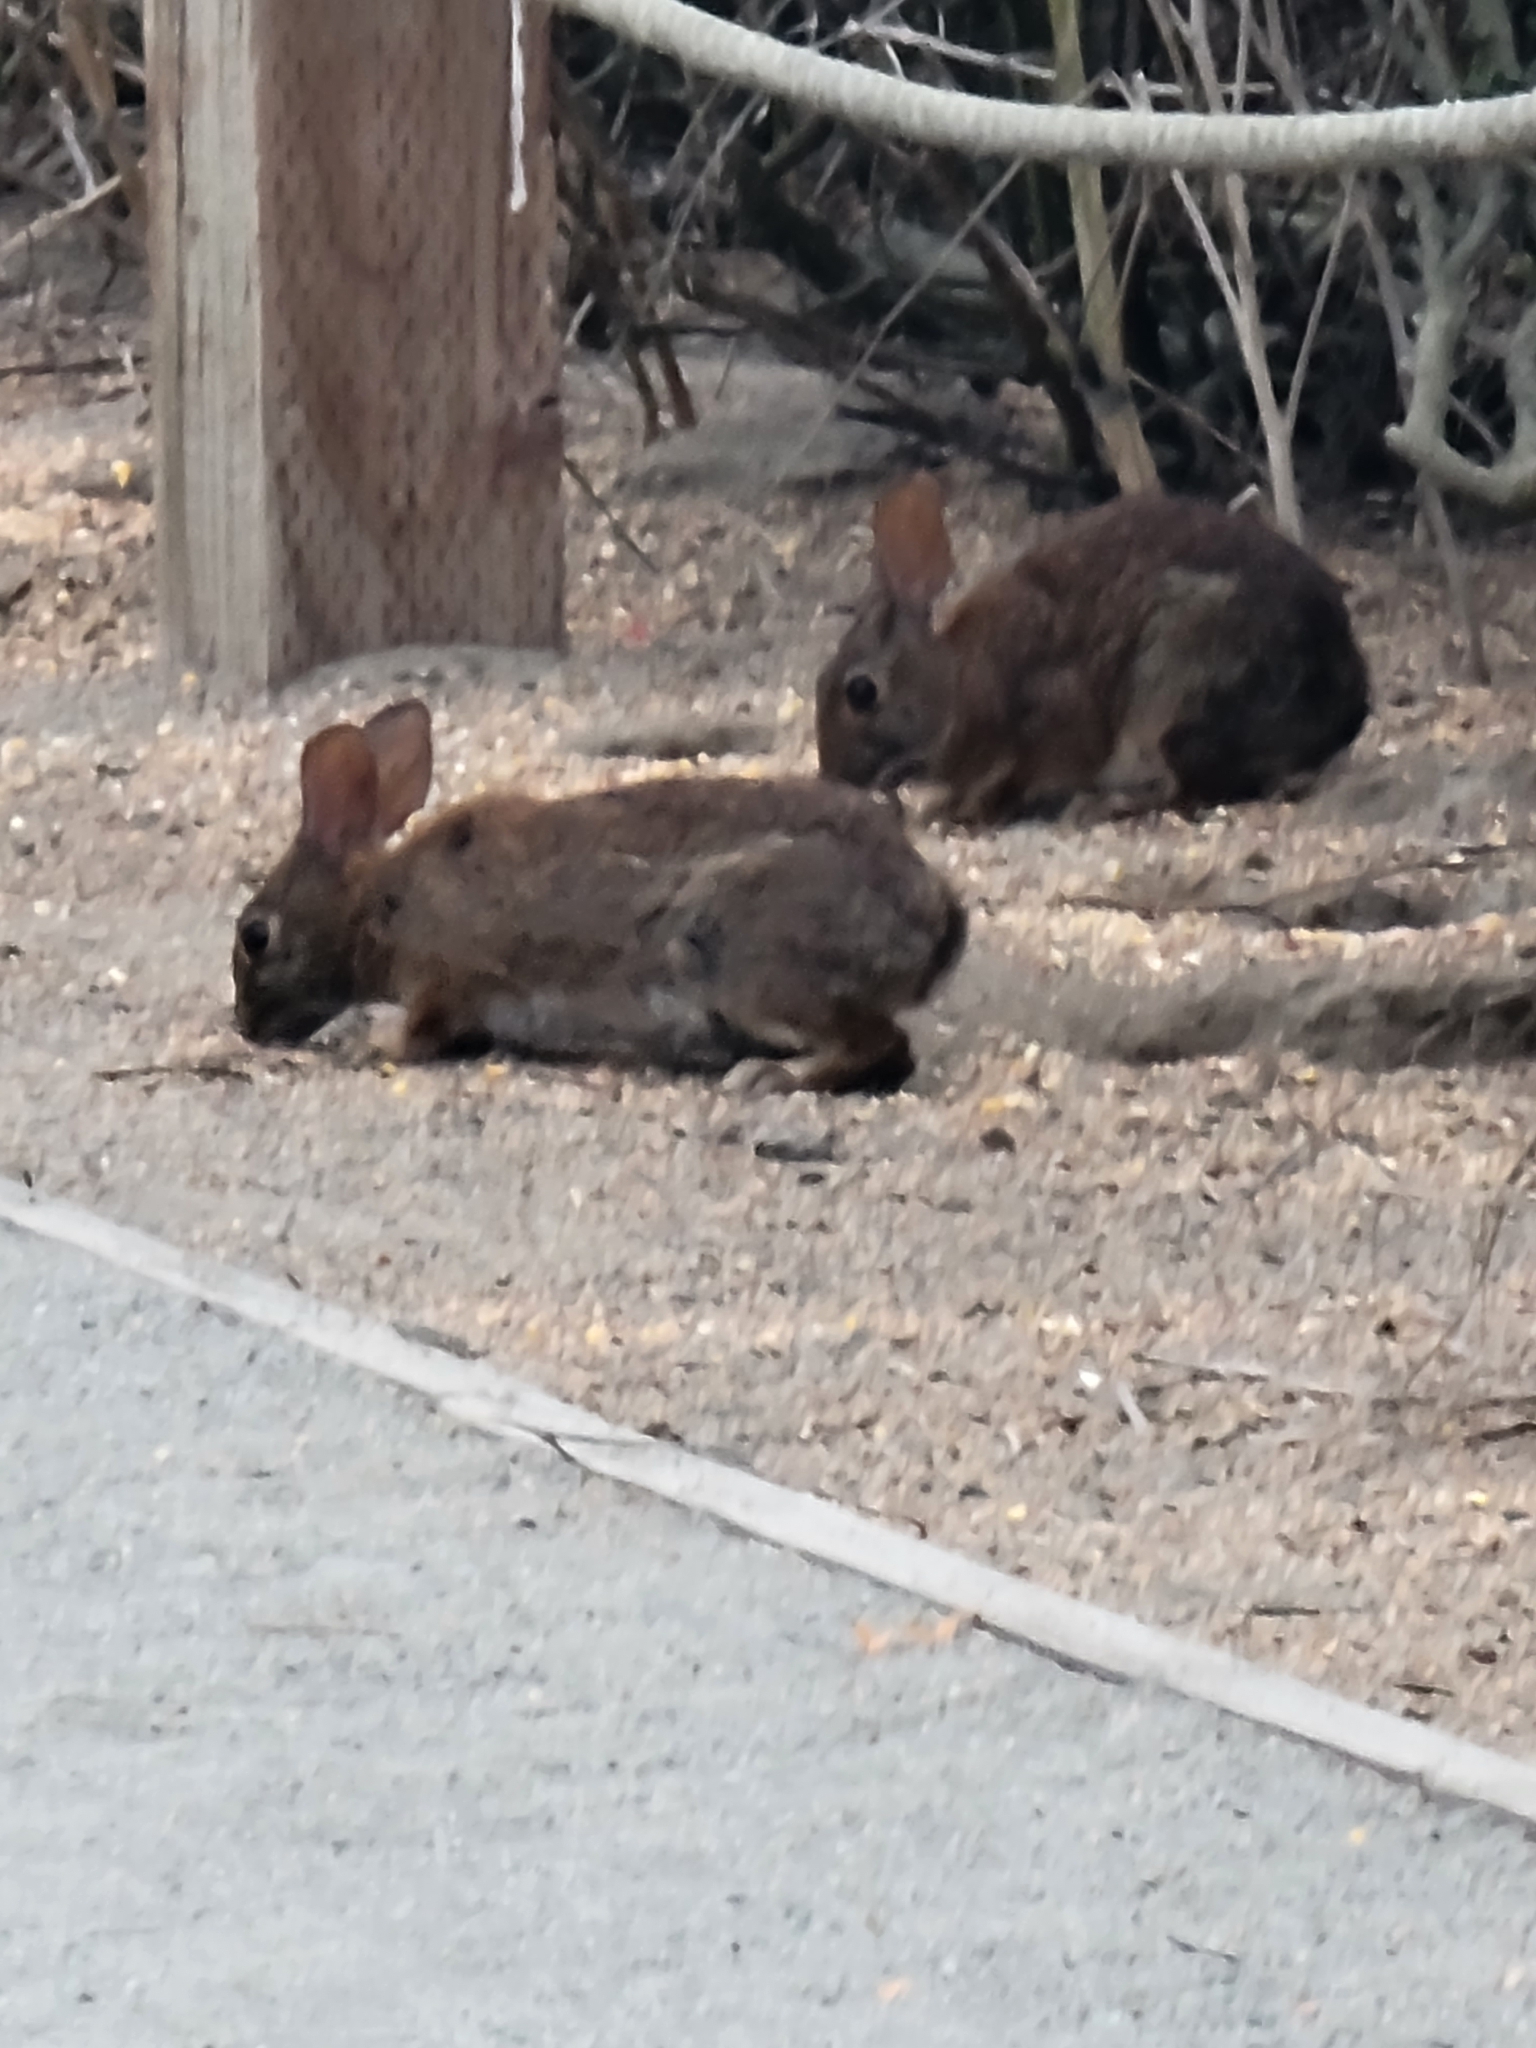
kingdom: Animalia
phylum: Chordata
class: Mammalia
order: Lagomorpha
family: Leporidae
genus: Sylvilagus
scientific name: Sylvilagus bachmani
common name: Brush rabbit
